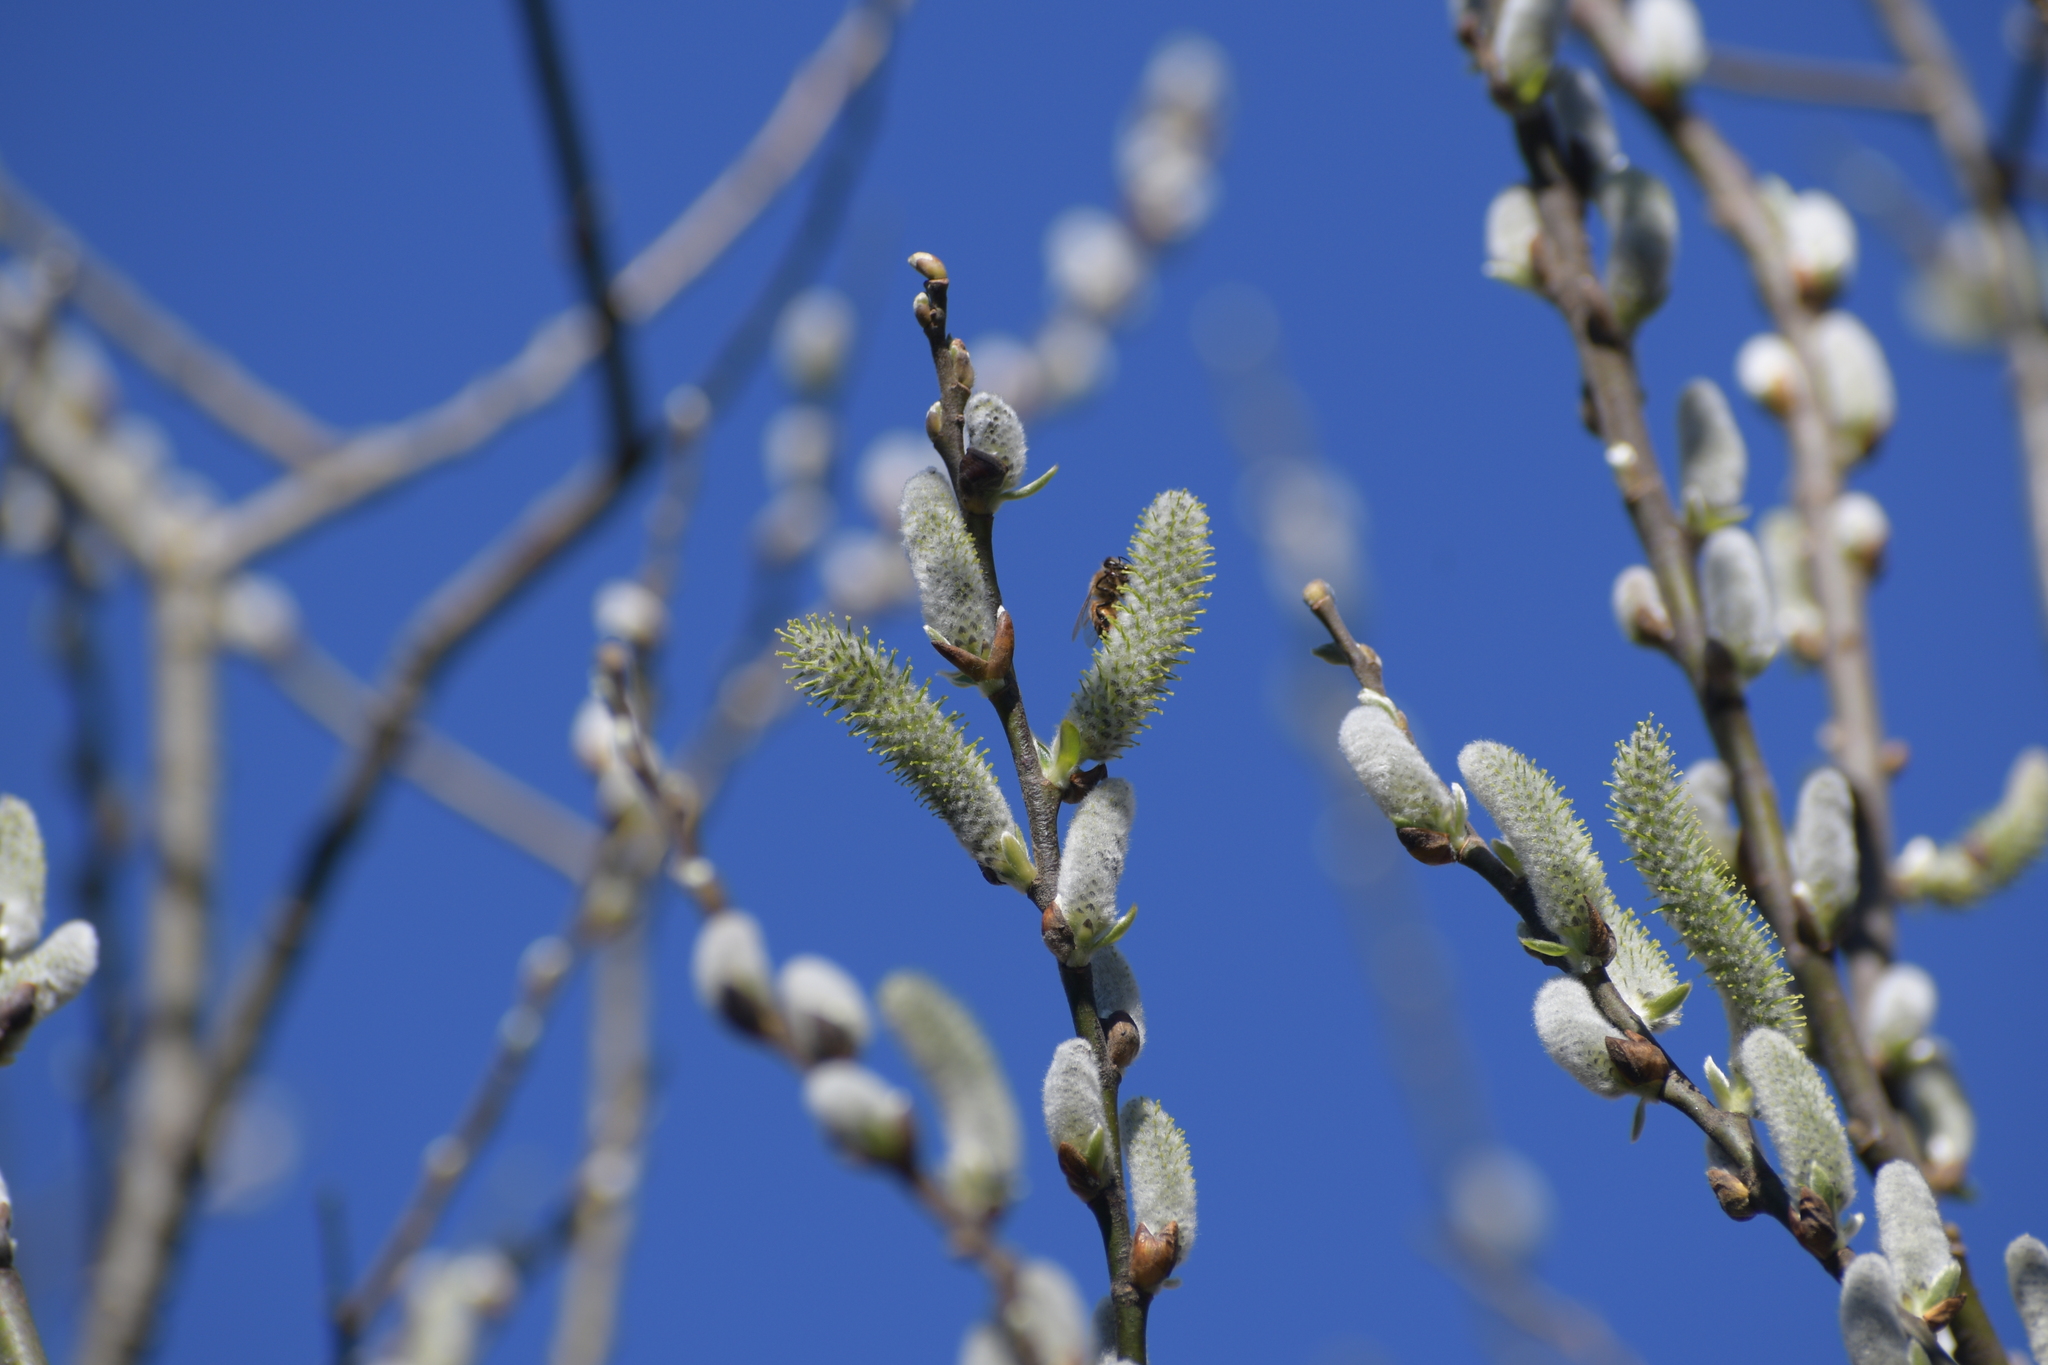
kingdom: Animalia
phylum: Arthropoda
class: Insecta
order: Hymenoptera
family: Apidae
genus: Apis
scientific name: Apis mellifera
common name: Honey bee
